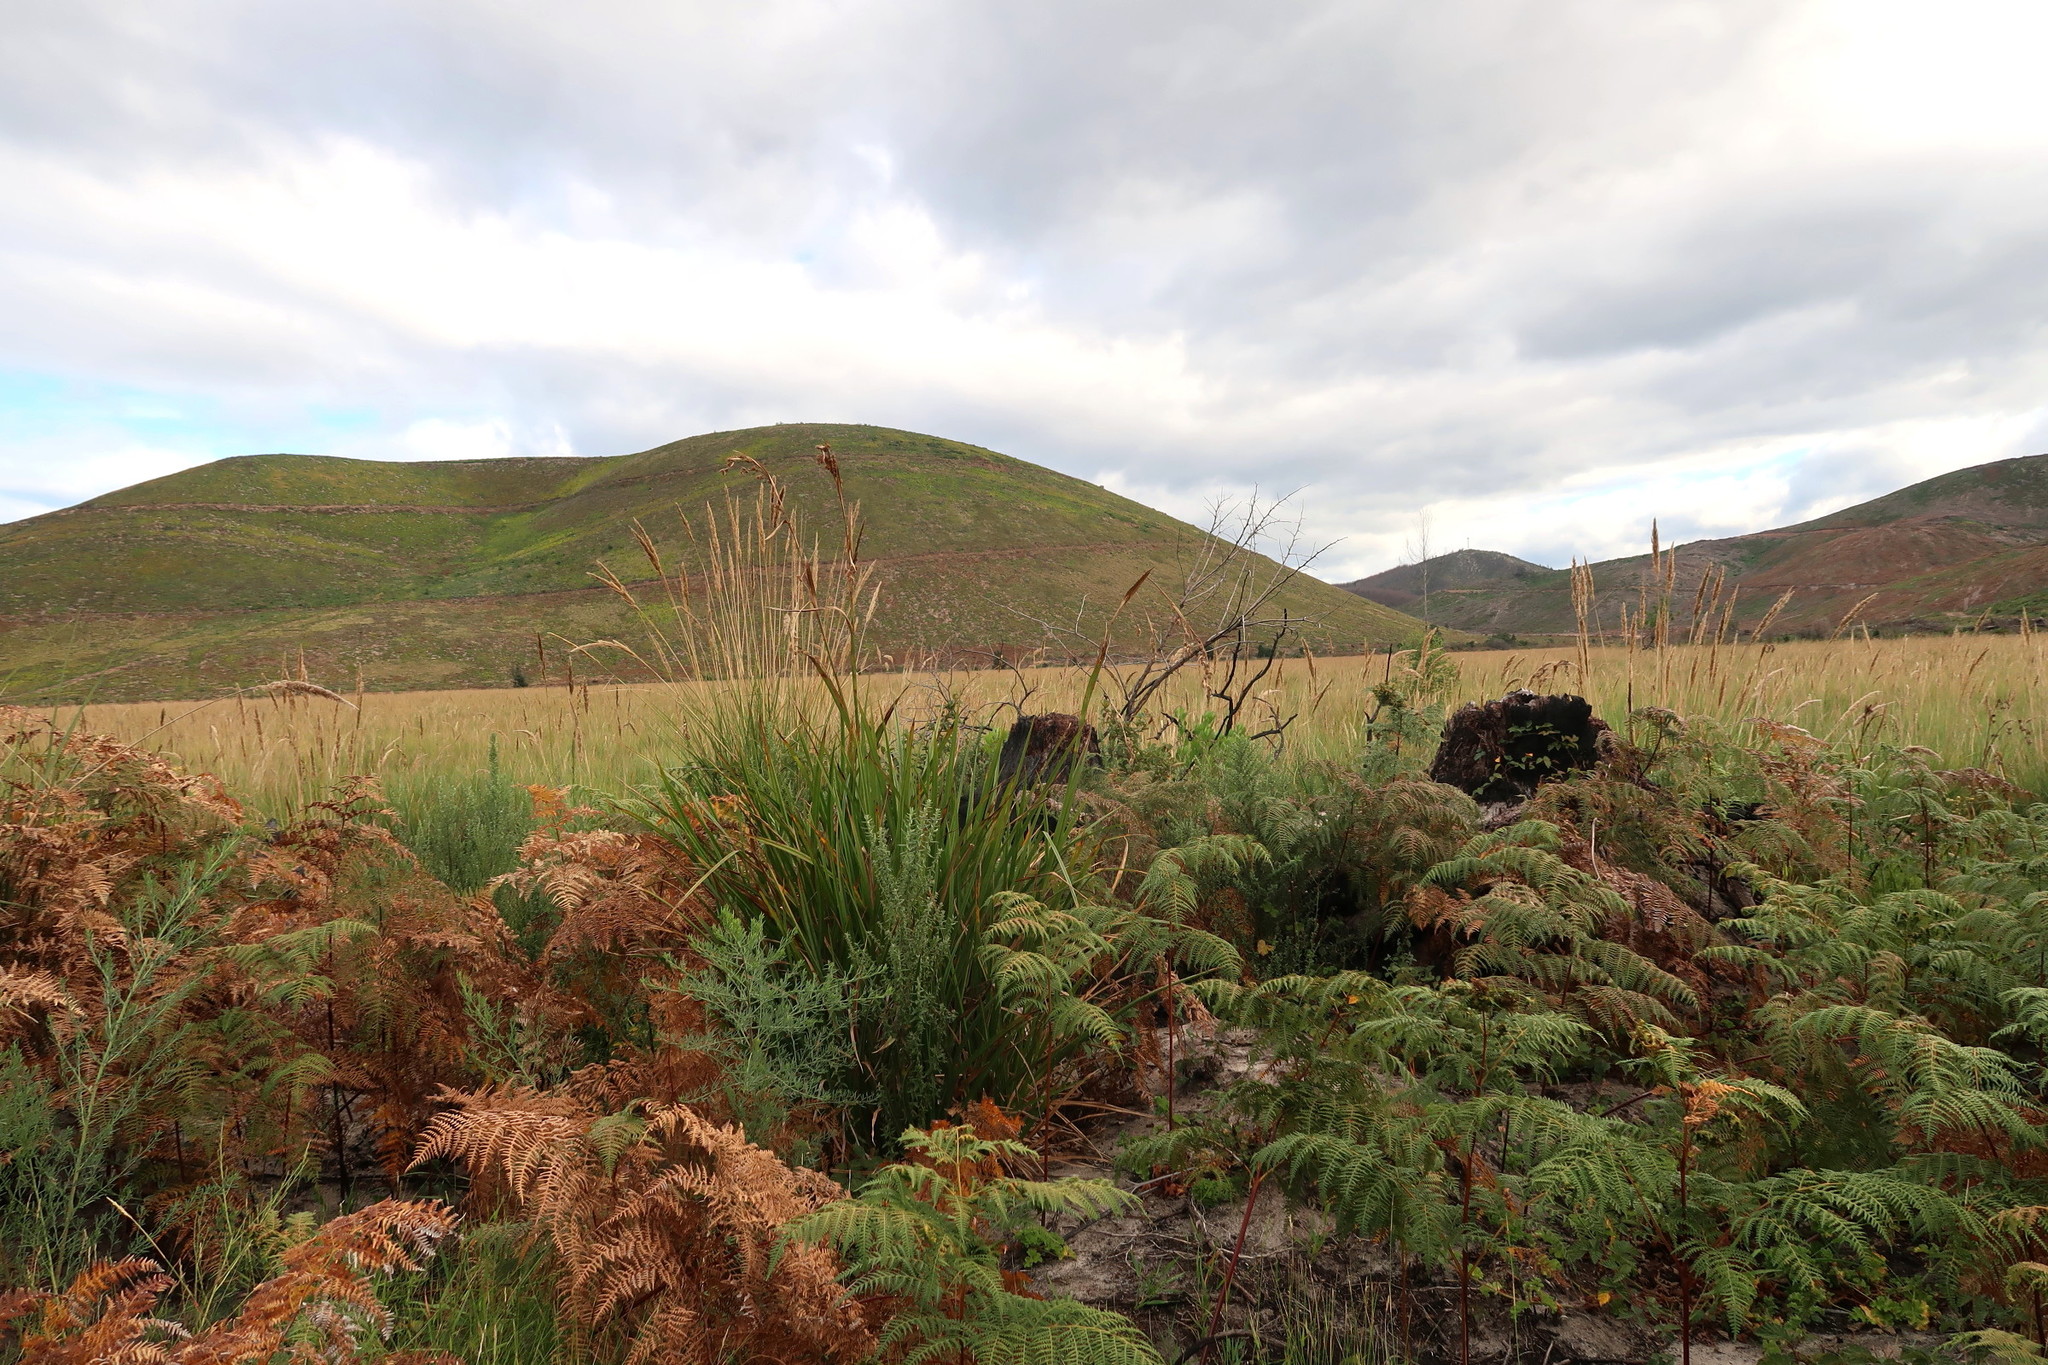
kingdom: Plantae
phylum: Tracheophyta
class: Polypodiopsida
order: Polypodiales
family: Dennstaedtiaceae
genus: Pteridium
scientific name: Pteridium aquilinum
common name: Bracken
